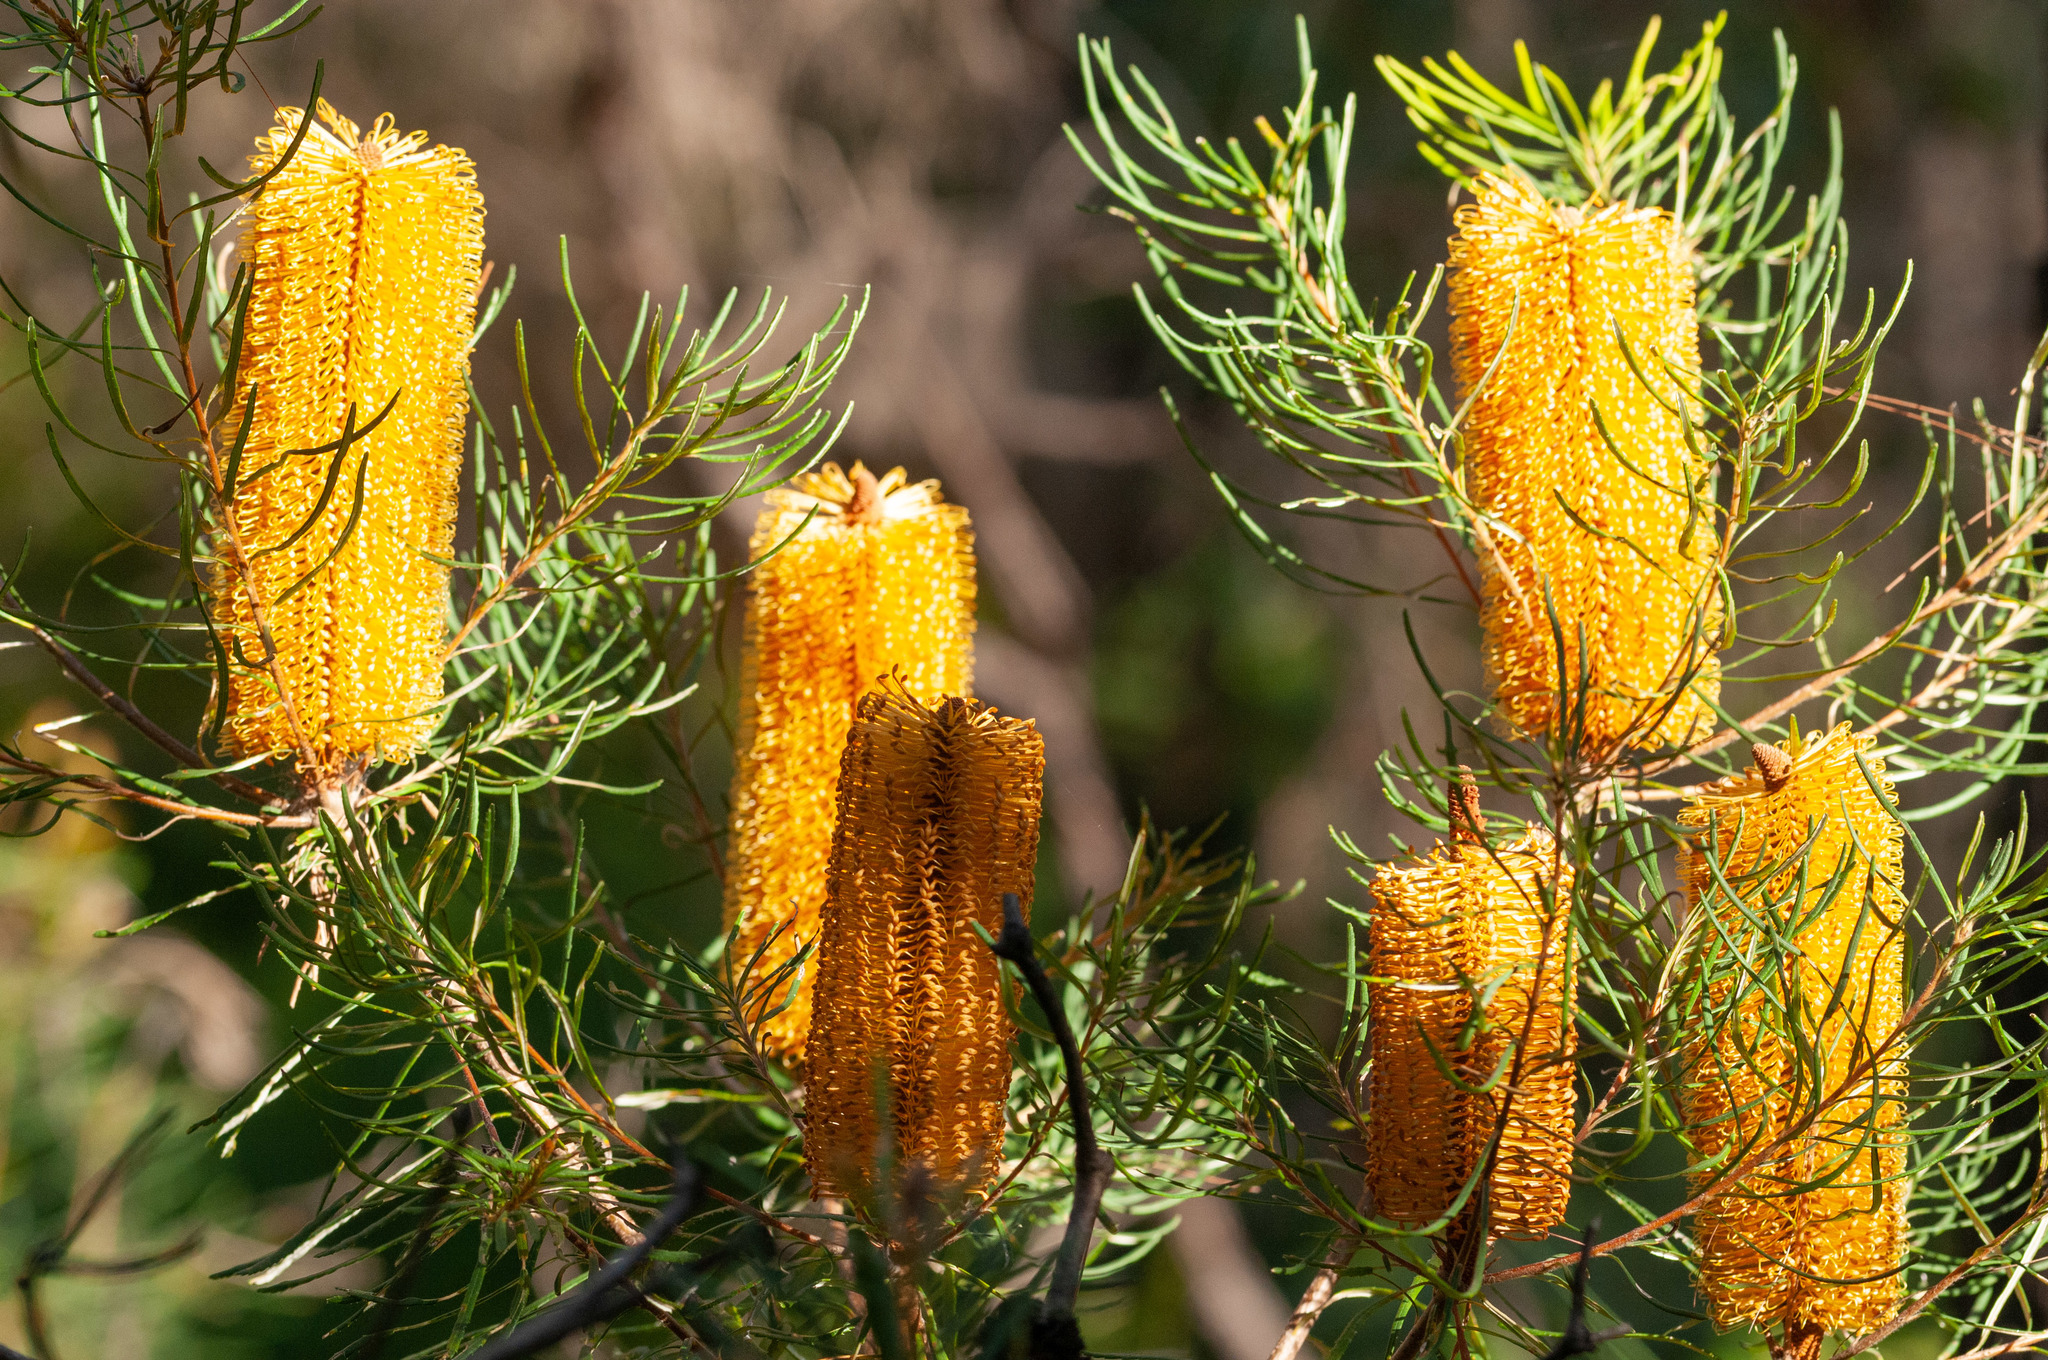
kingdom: Plantae
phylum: Tracheophyta
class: Magnoliopsida
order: Proteales
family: Proteaceae
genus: Banksia
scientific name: Banksia spinulosa
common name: Hairpin banksia
